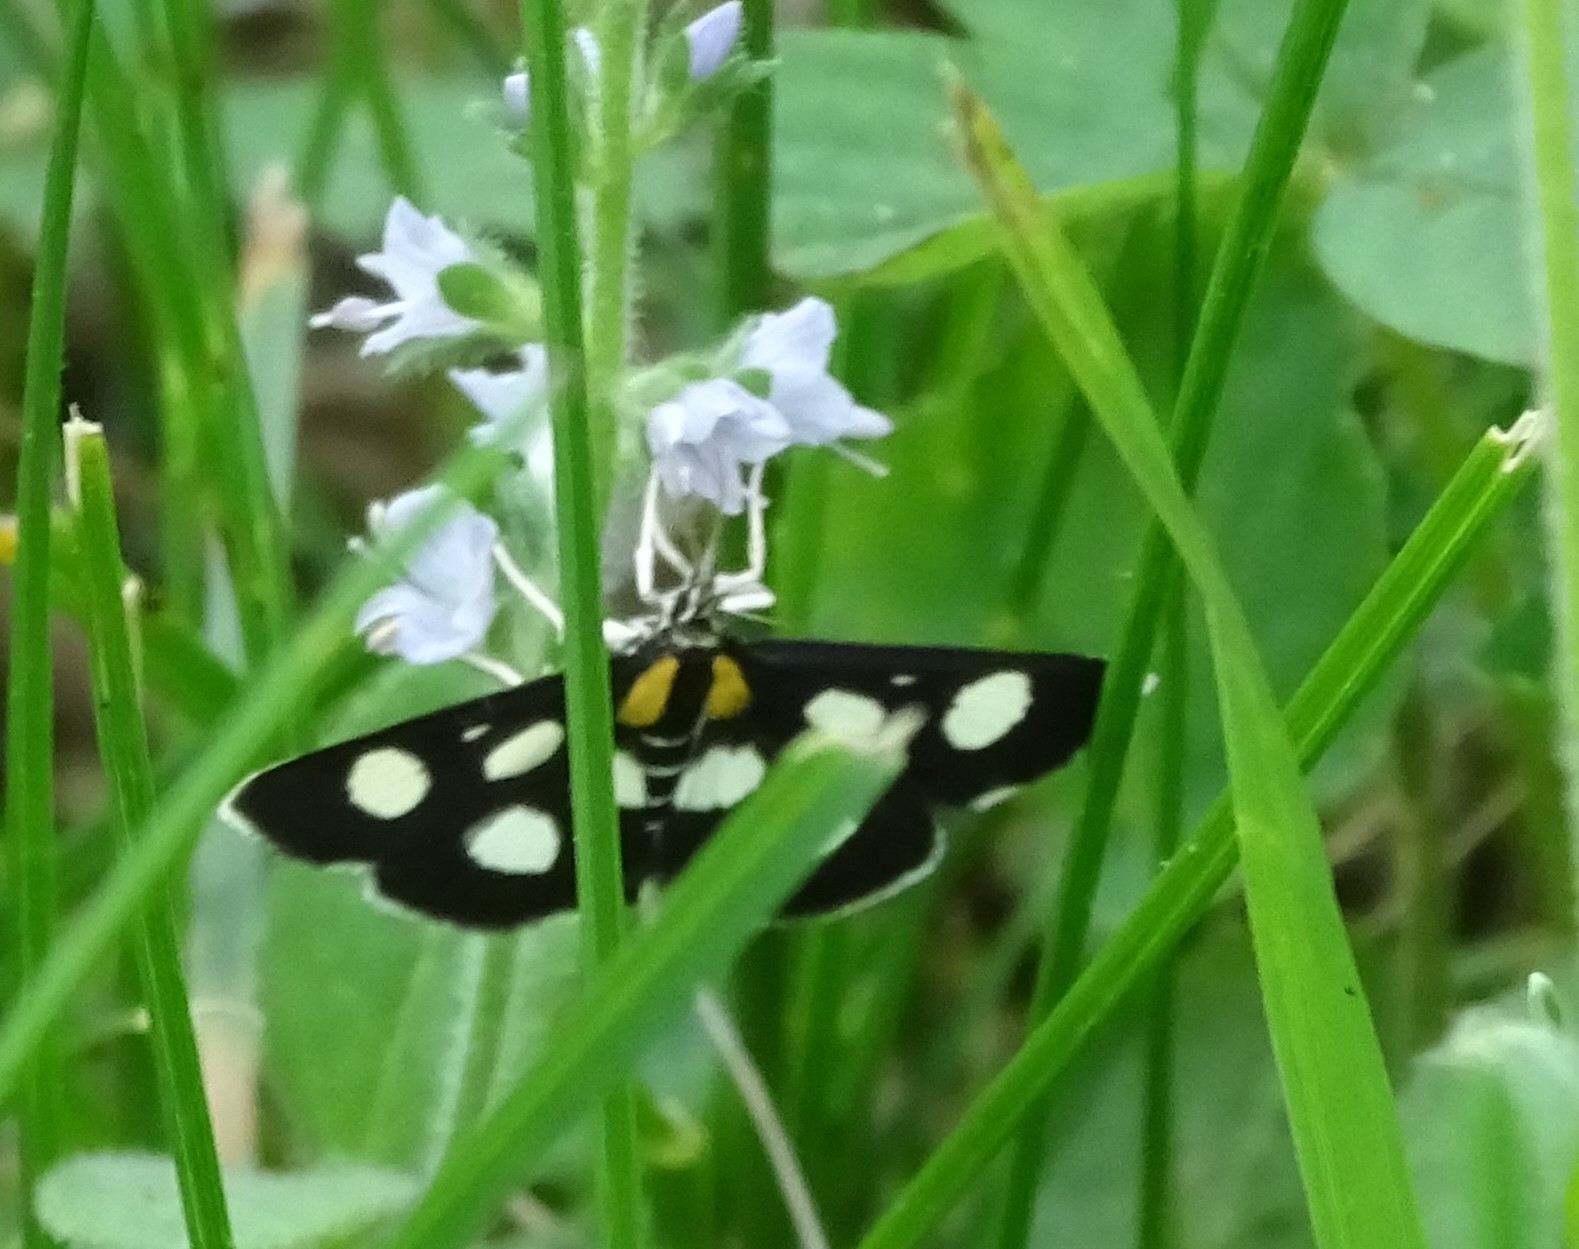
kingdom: Animalia
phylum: Arthropoda
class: Insecta
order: Lepidoptera
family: Crambidae
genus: Anania
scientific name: Anania funebris
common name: White-spotted sable moth
